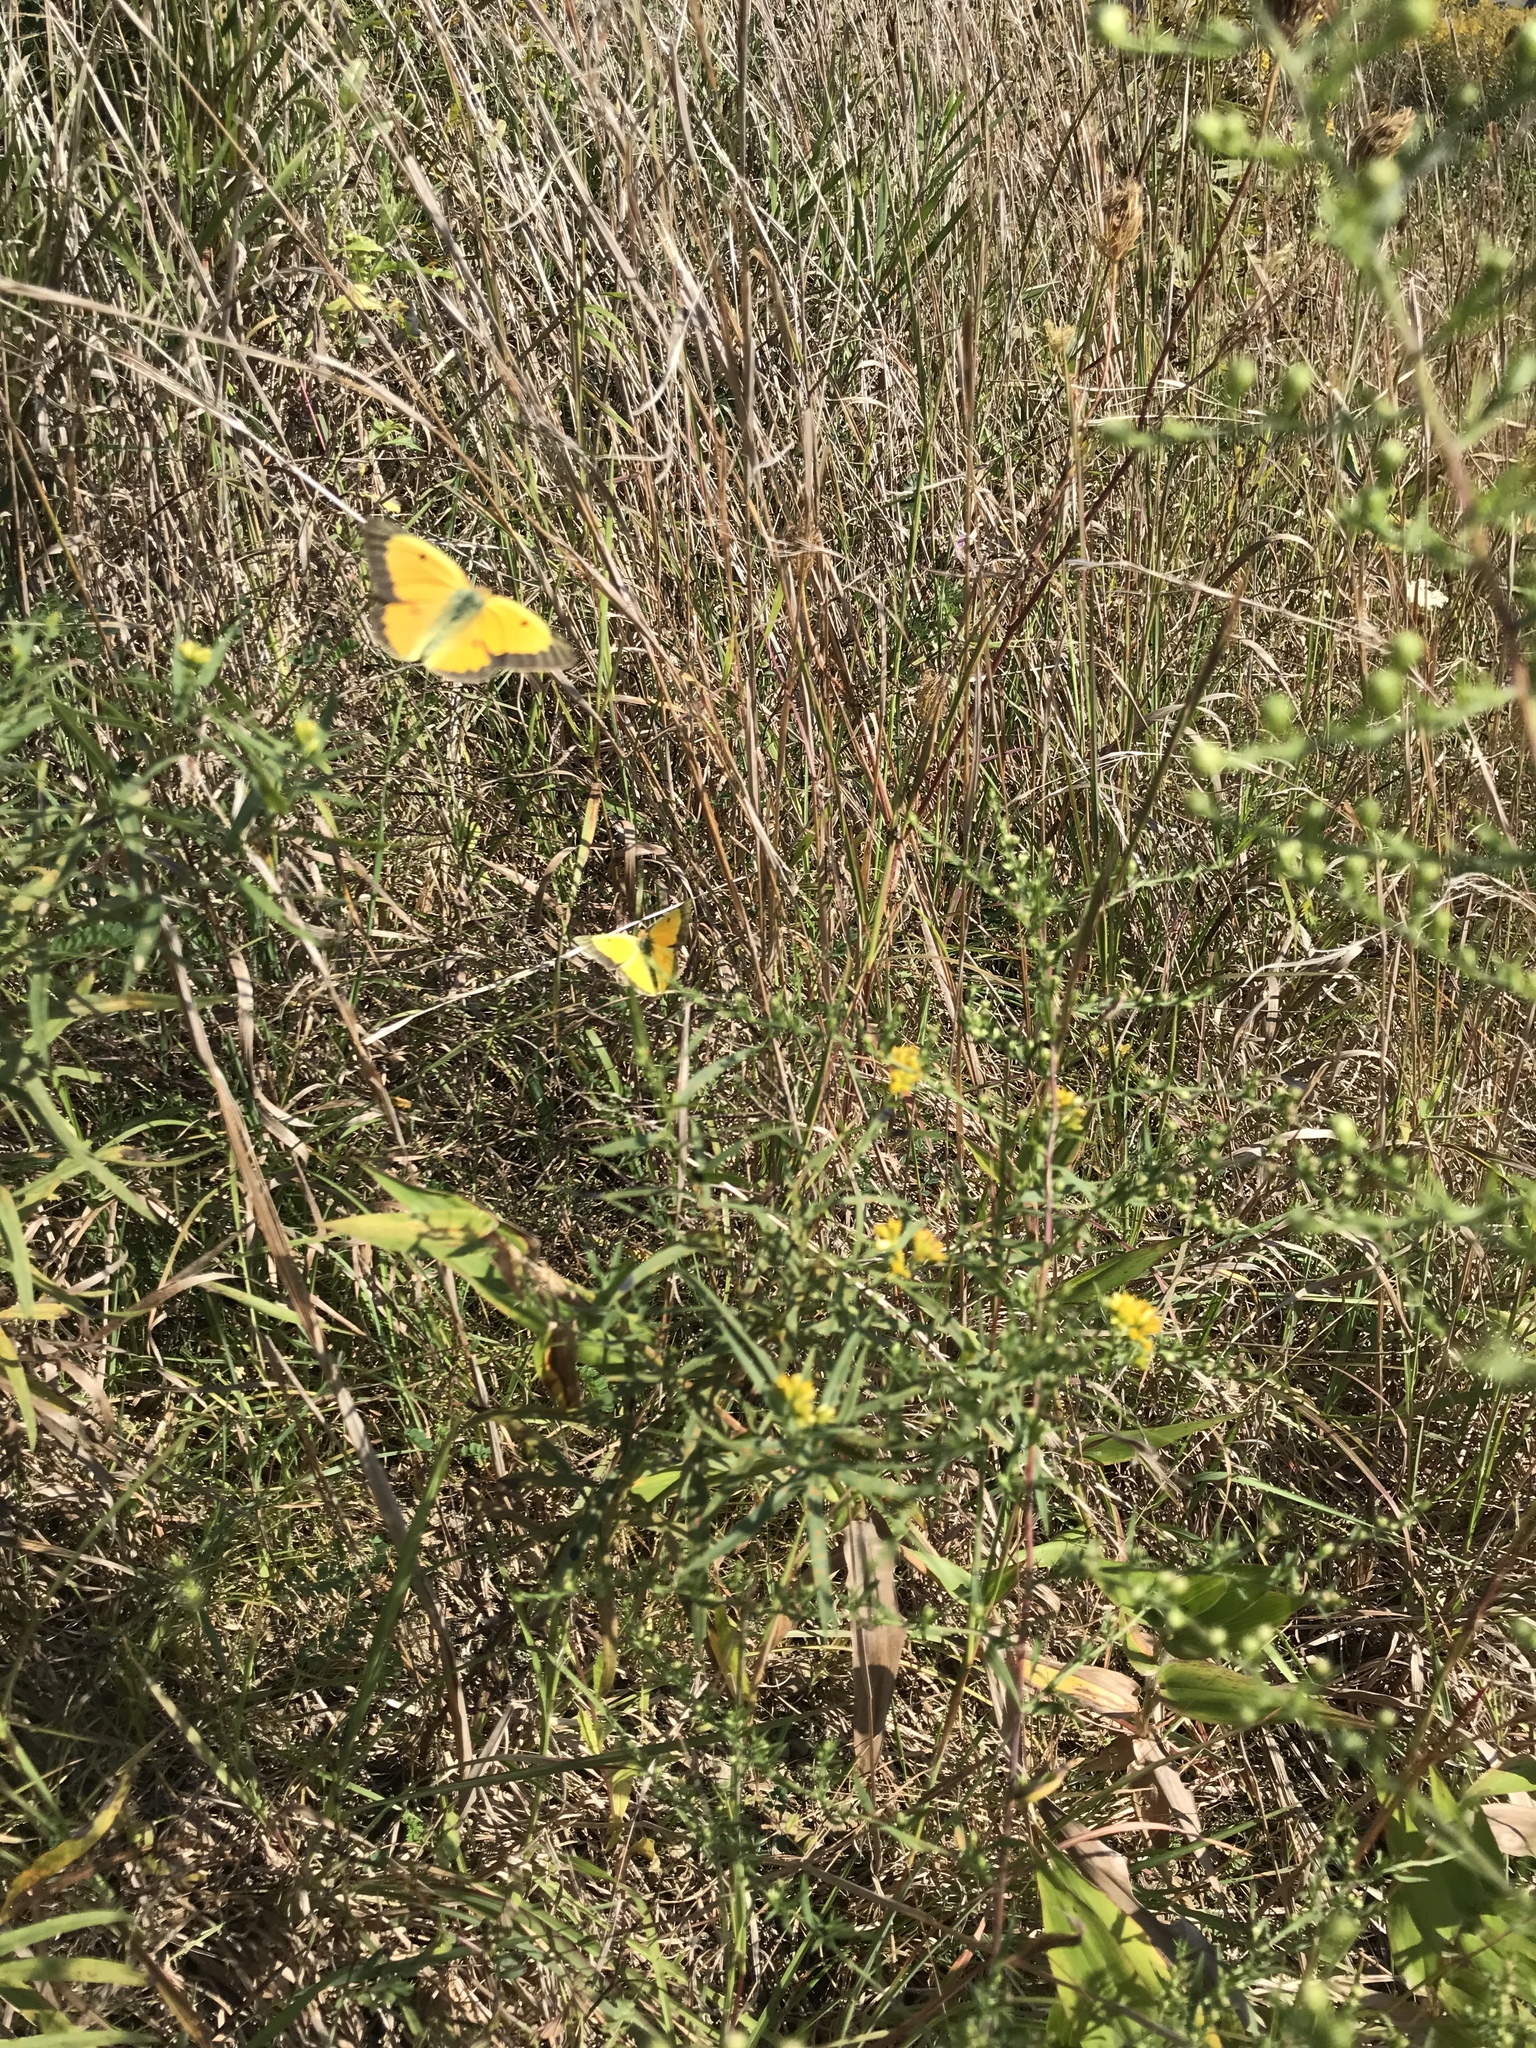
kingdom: Animalia
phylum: Arthropoda
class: Insecta
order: Lepidoptera
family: Pieridae
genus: Colias
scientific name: Colias eurytheme
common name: Alfalfa butterfly
